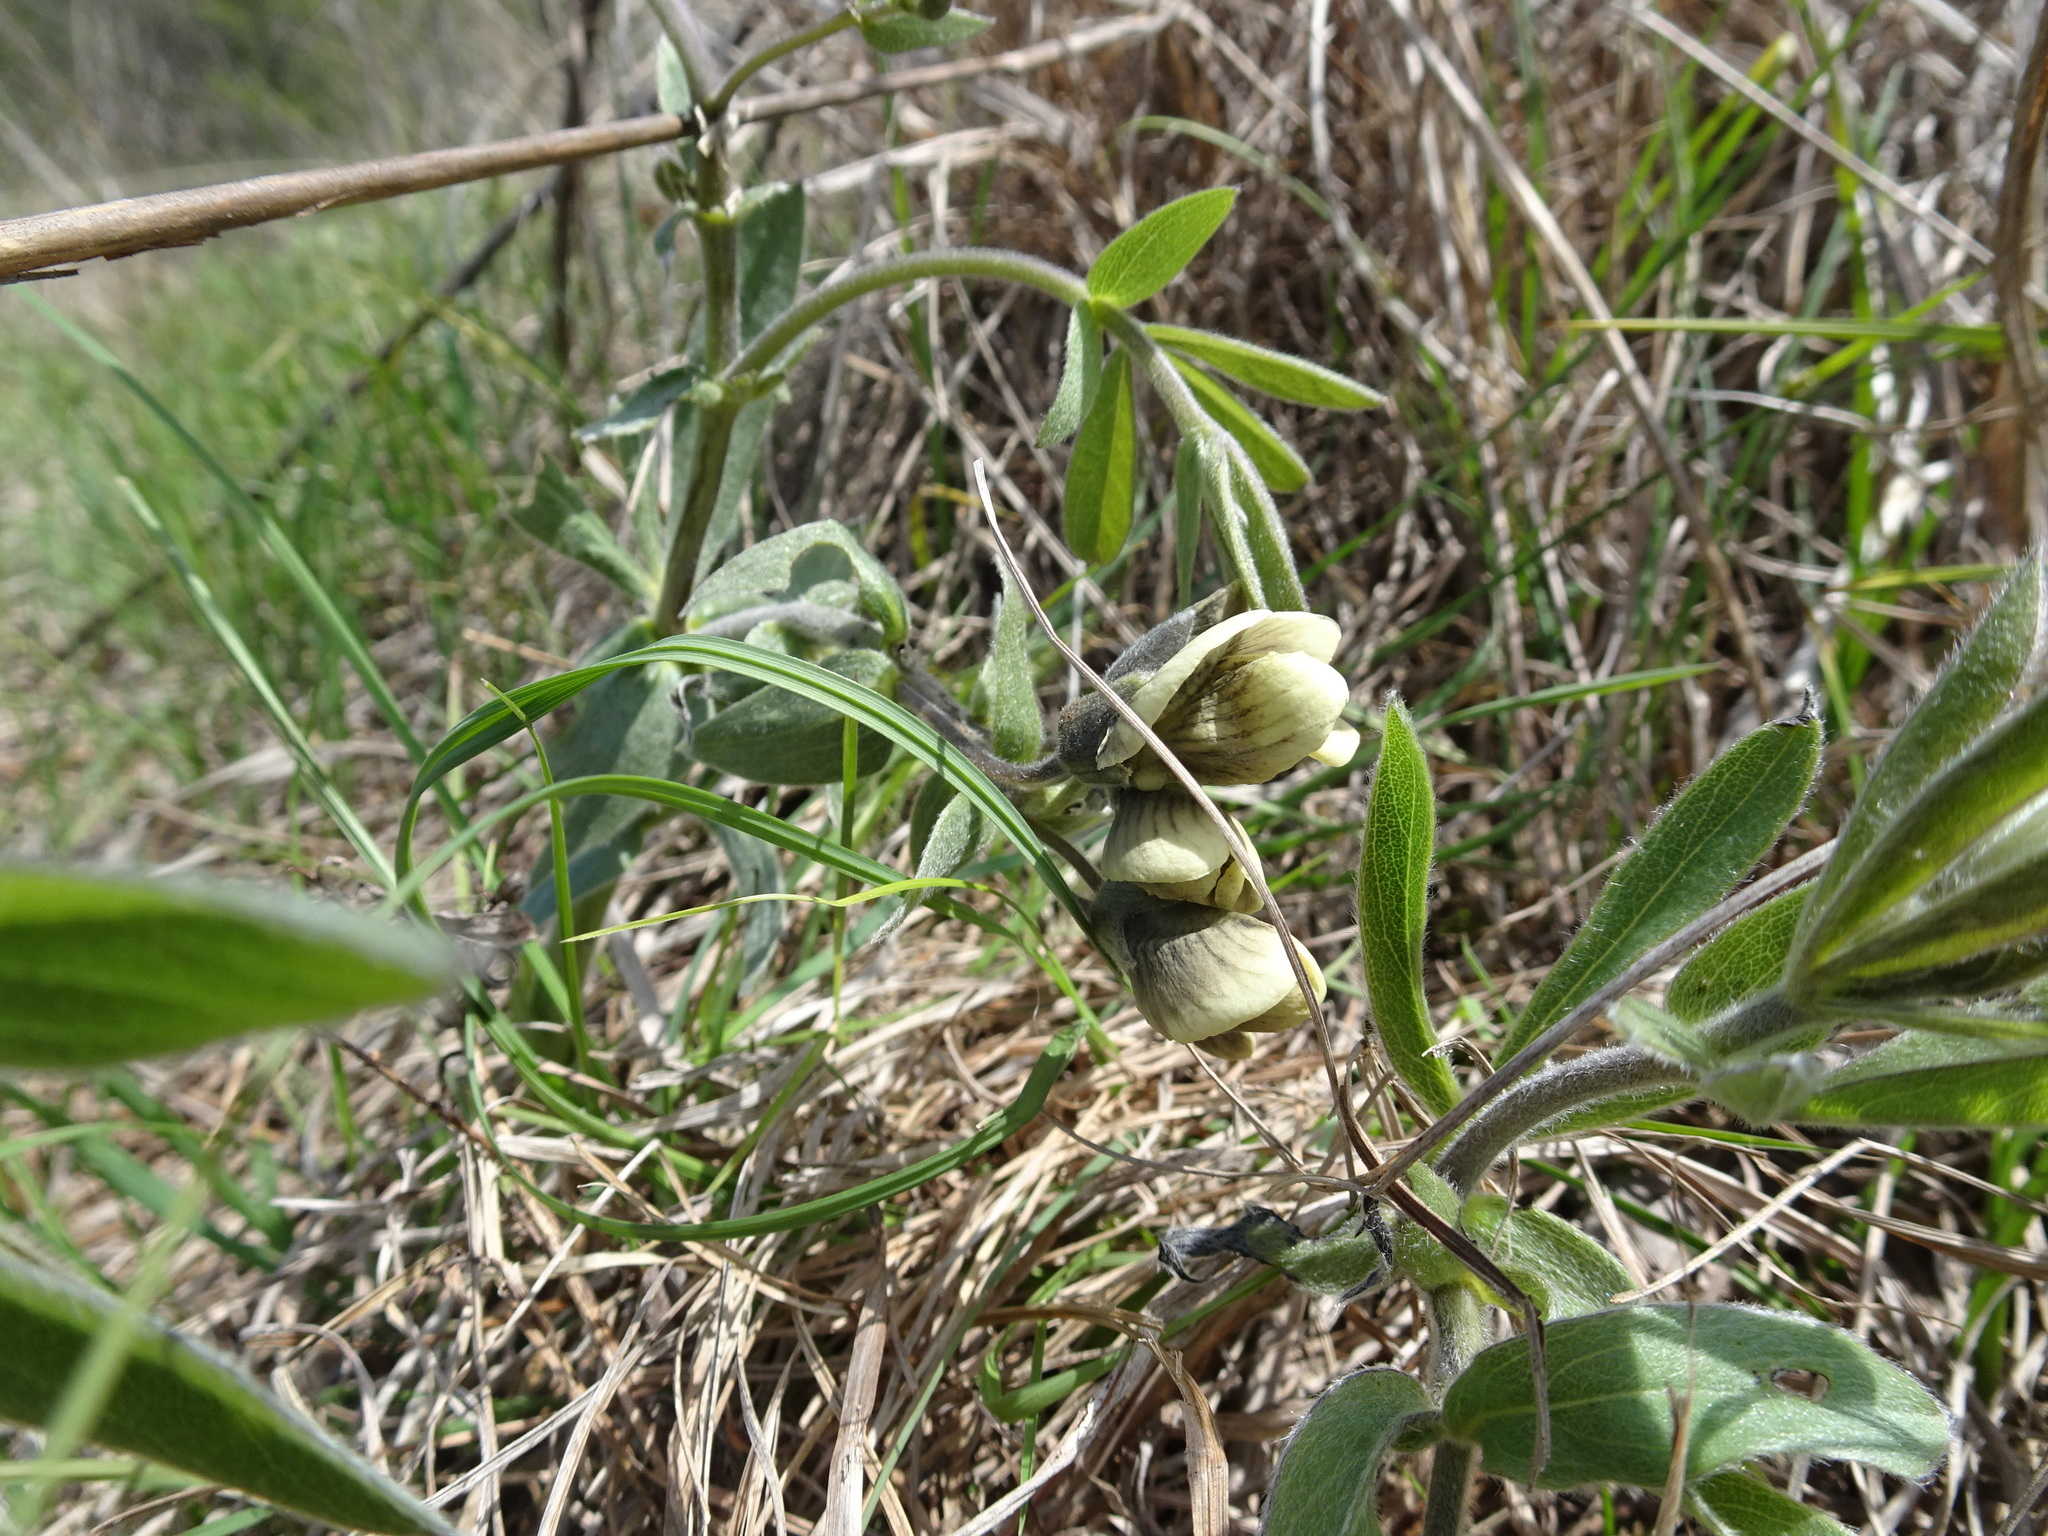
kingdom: Plantae
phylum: Tracheophyta
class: Magnoliopsida
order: Fabales
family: Fabaceae
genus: Baptisia
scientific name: Baptisia bracteata
